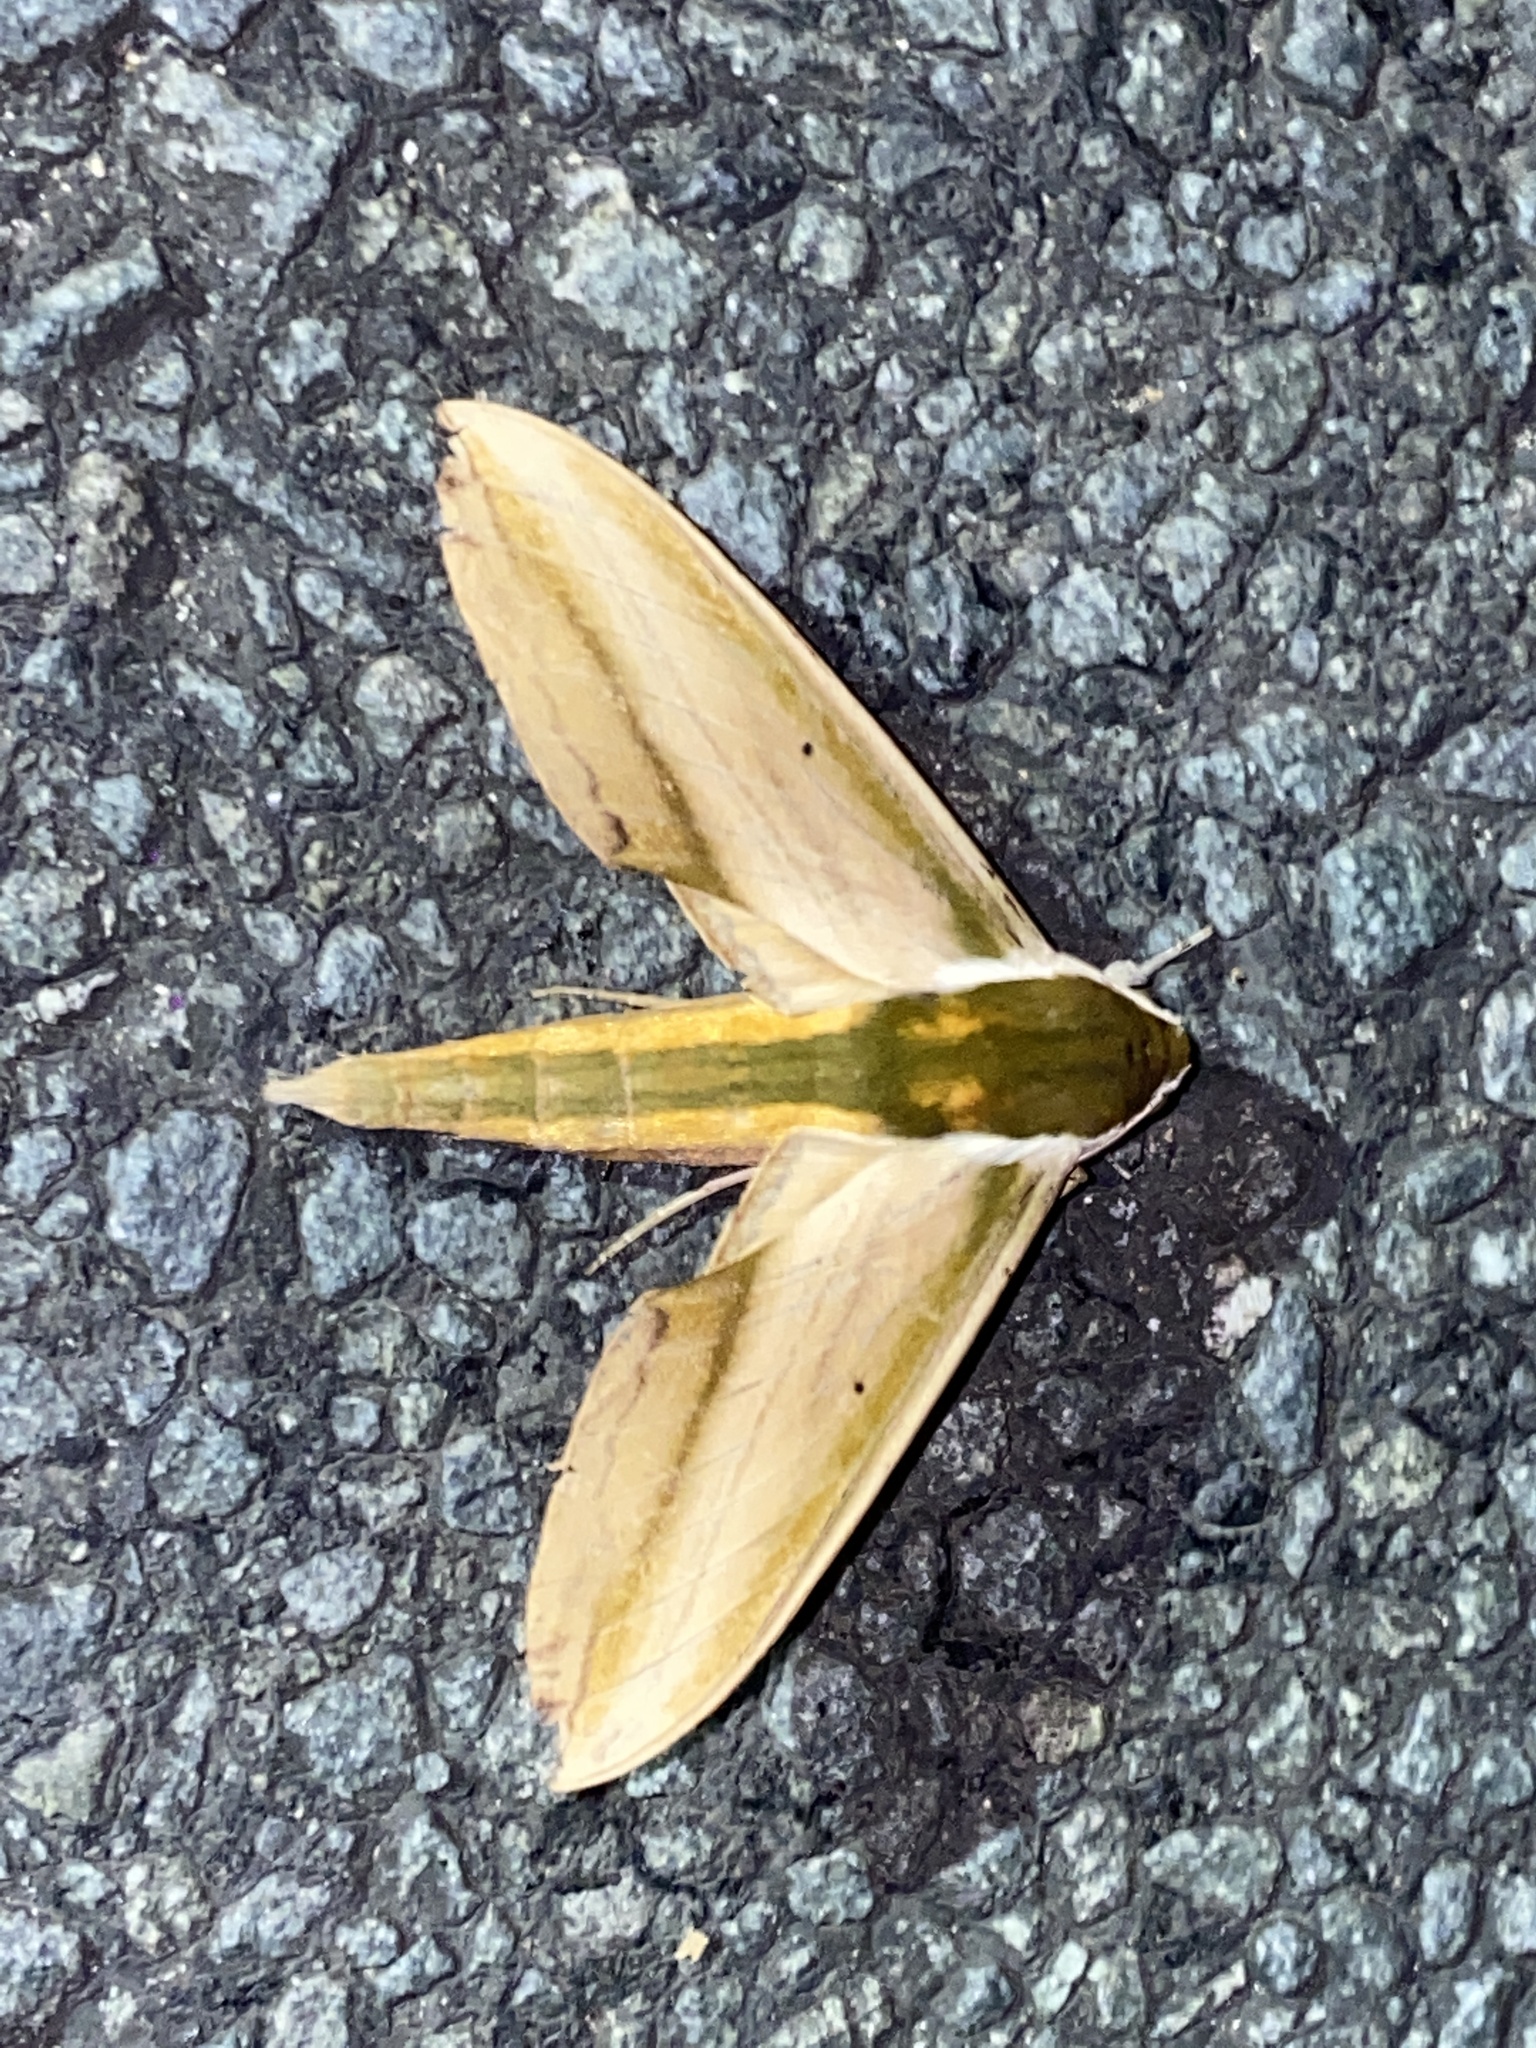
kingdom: Animalia
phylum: Arthropoda
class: Insecta
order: Lepidoptera
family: Sphingidae
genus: Theretra
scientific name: Theretra nessus
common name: Yam hawk moth
